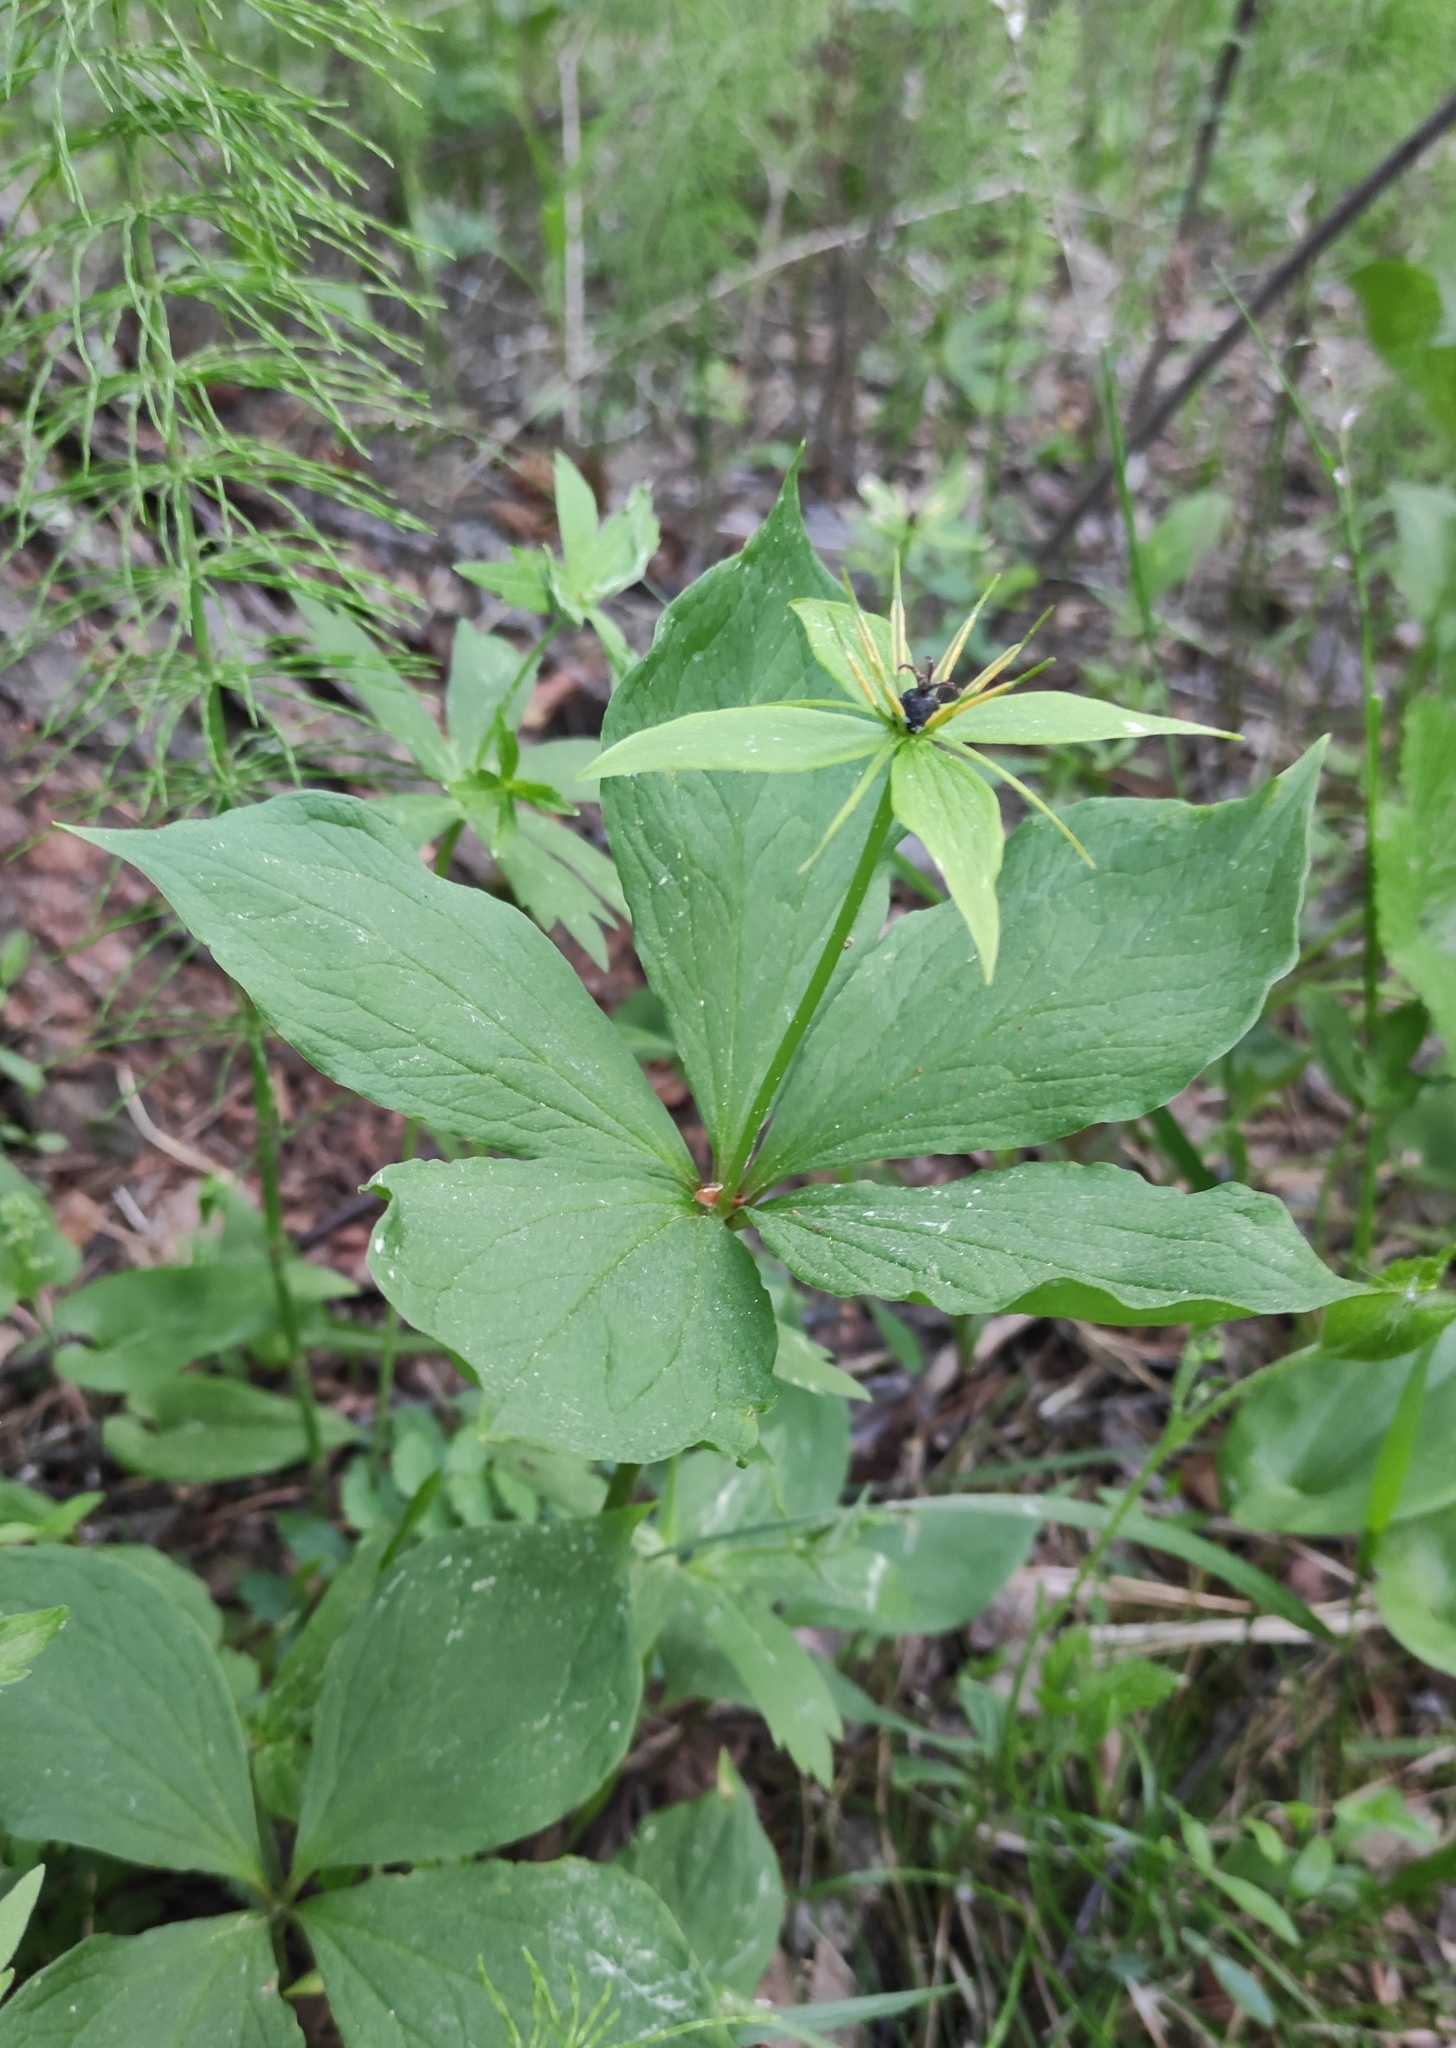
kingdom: Plantae
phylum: Tracheophyta
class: Liliopsida
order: Liliales
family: Melanthiaceae
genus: Paris
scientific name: Paris verticillata
